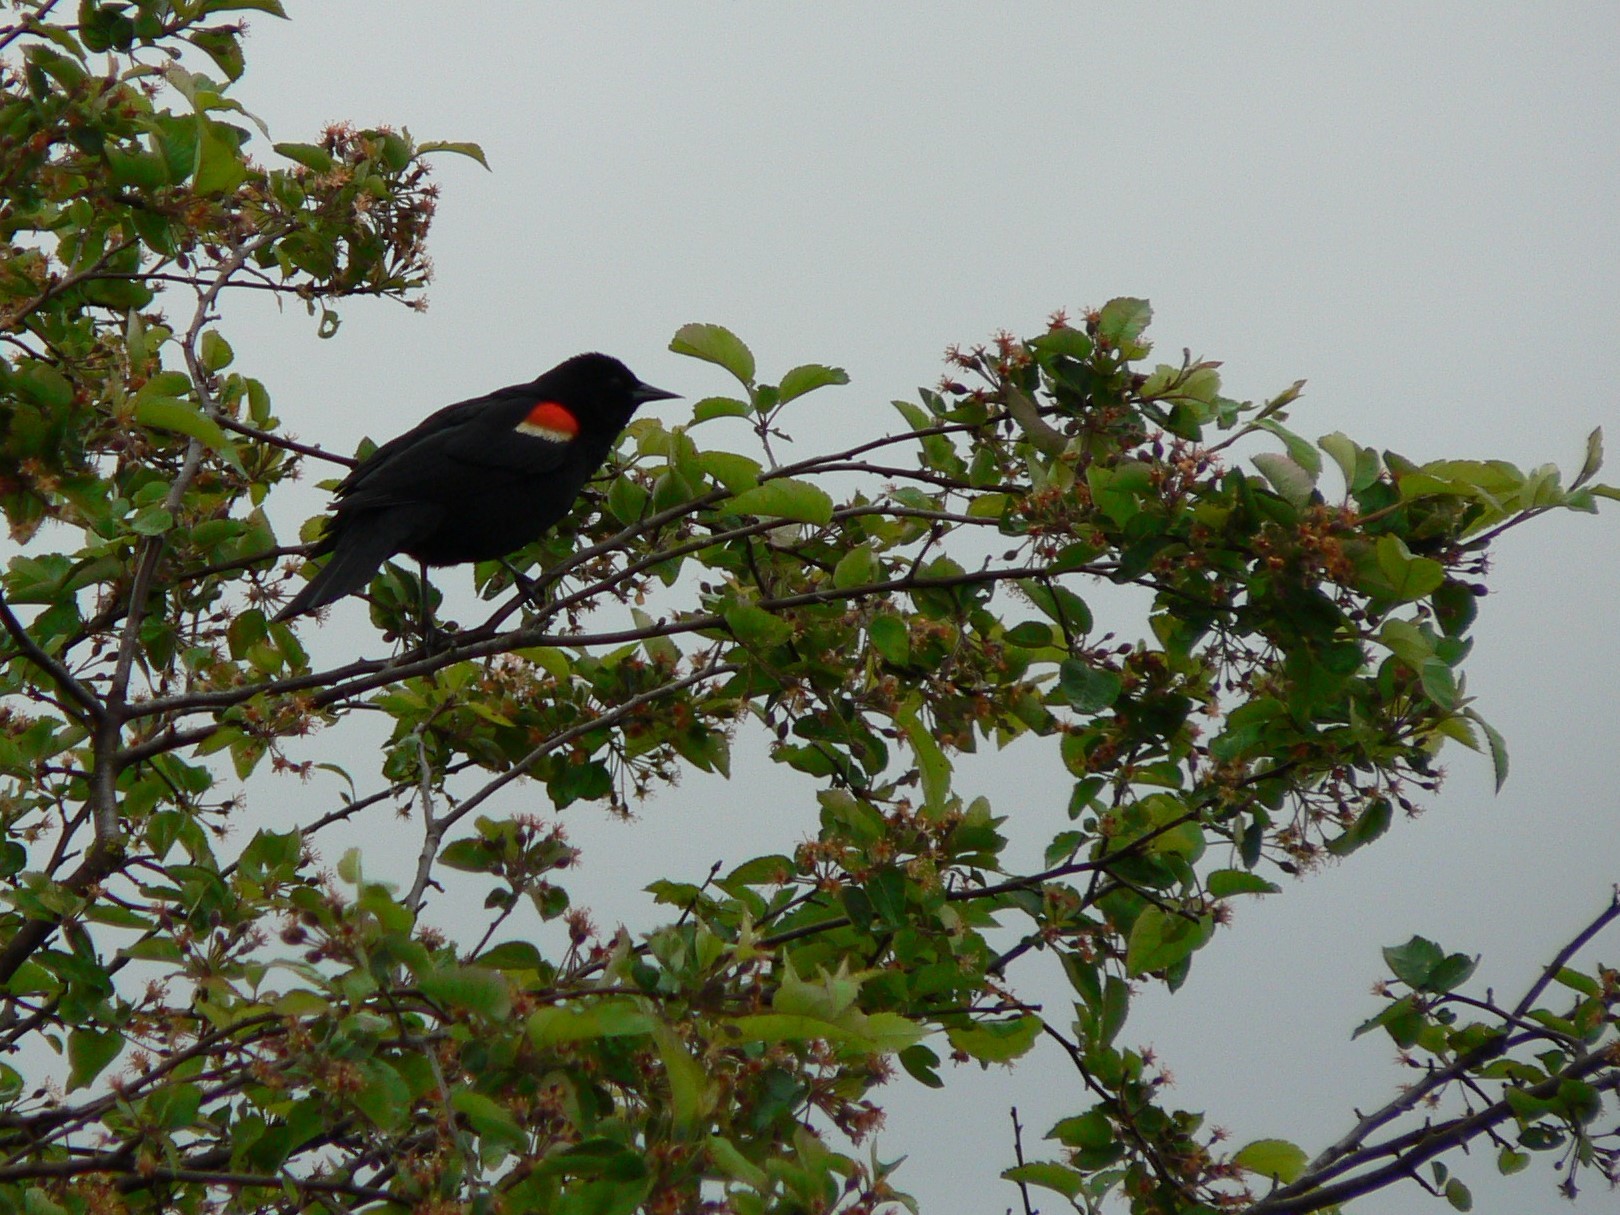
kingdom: Animalia
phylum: Chordata
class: Aves
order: Passeriformes
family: Icteridae
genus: Agelaius
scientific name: Agelaius phoeniceus
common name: Red-winged blackbird
